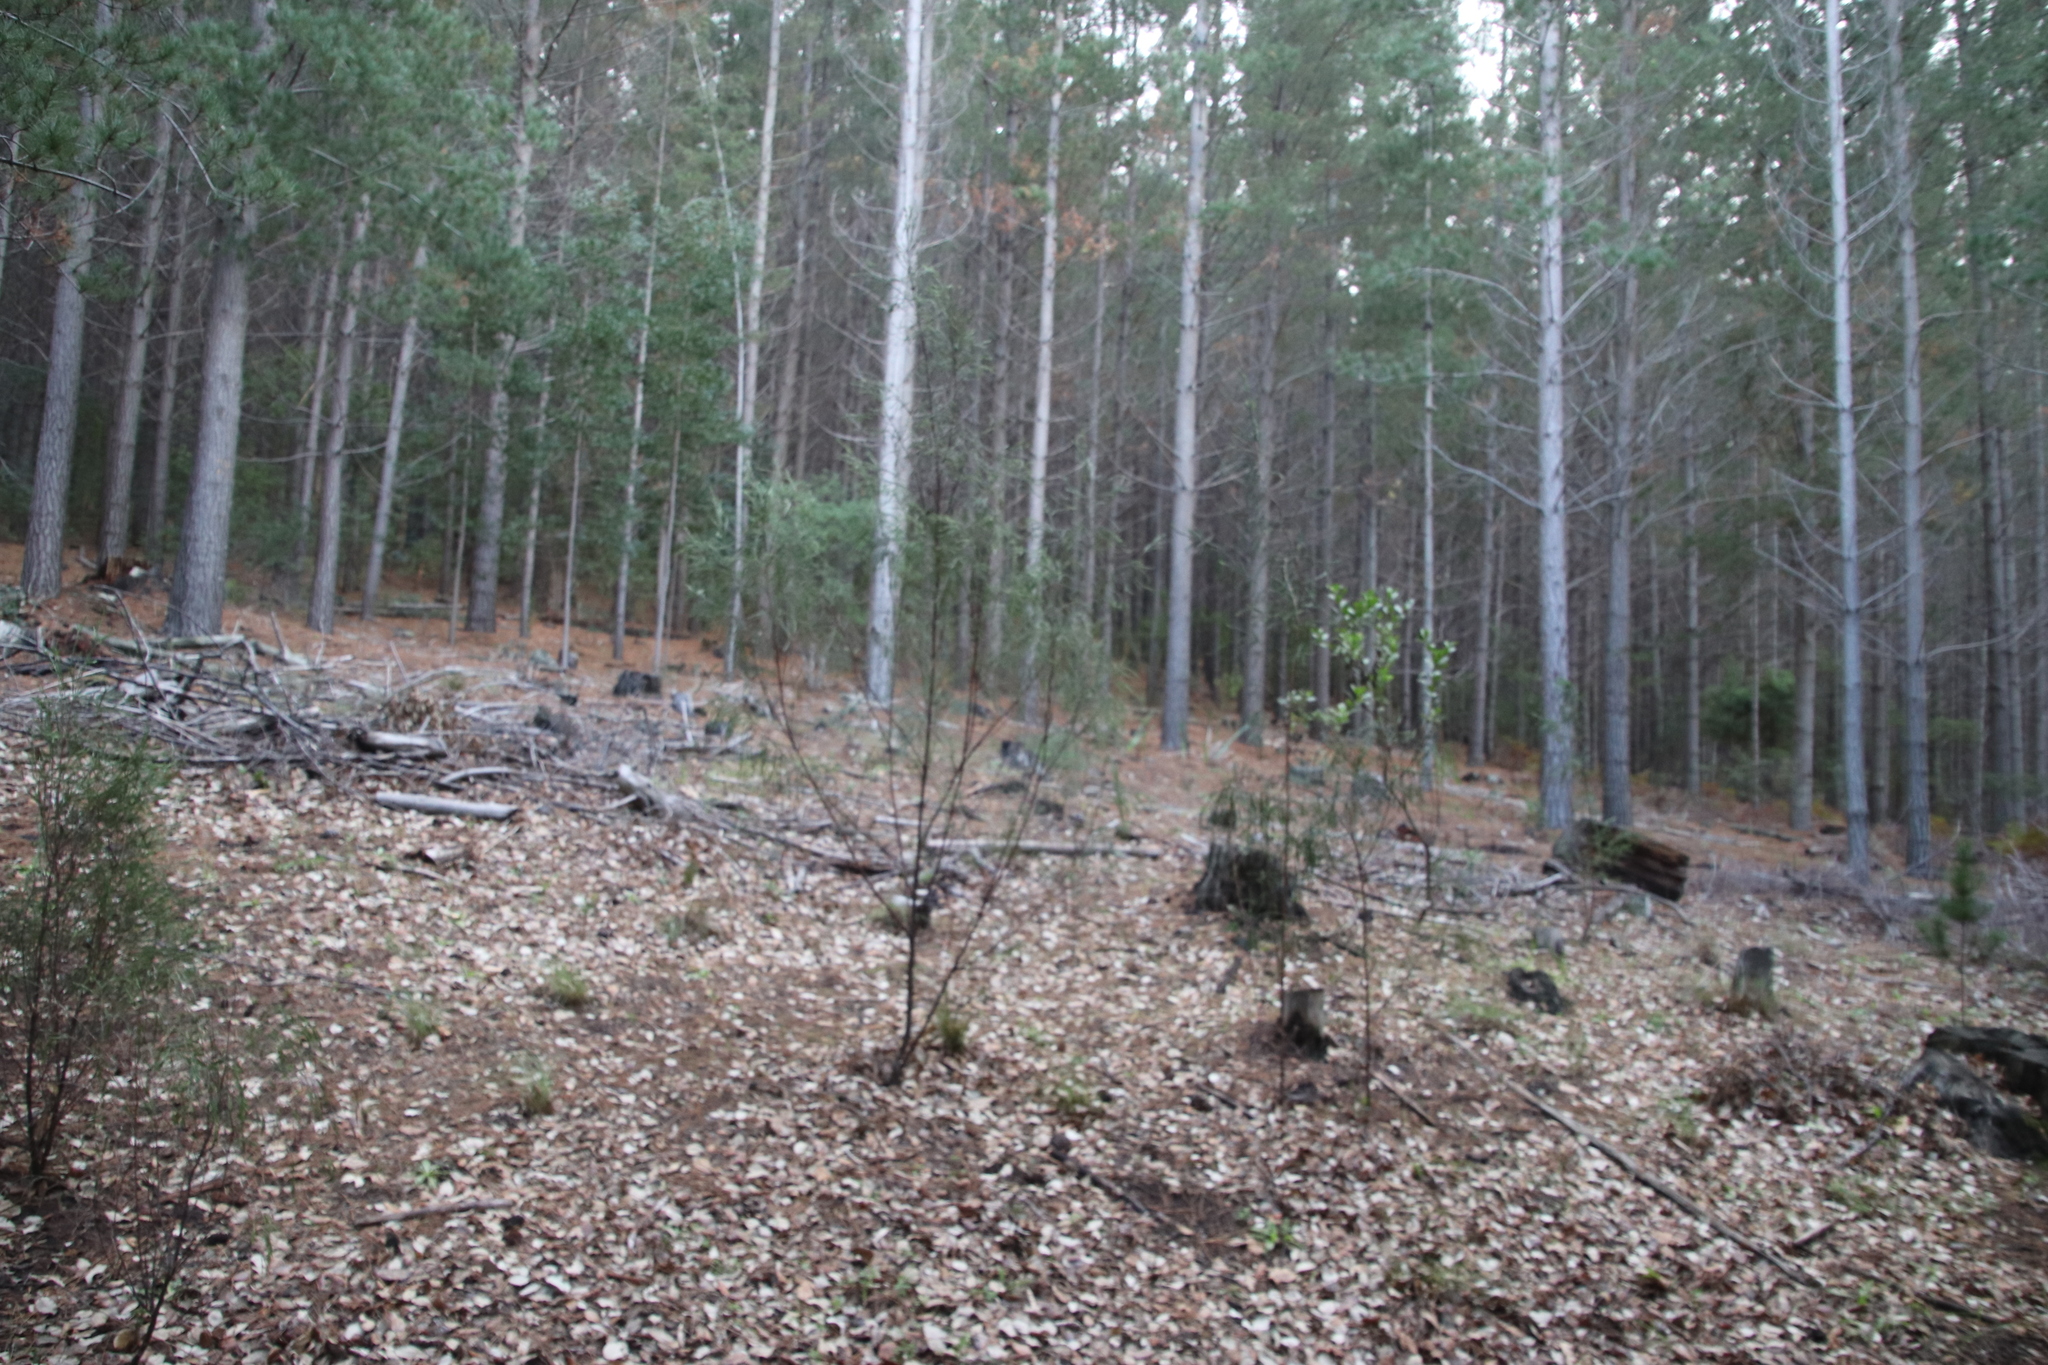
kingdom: Plantae
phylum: Tracheophyta
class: Magnoliopsida
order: Malvales
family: Thymelaeaceae
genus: Passerina
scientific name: Passerina corymbosa
